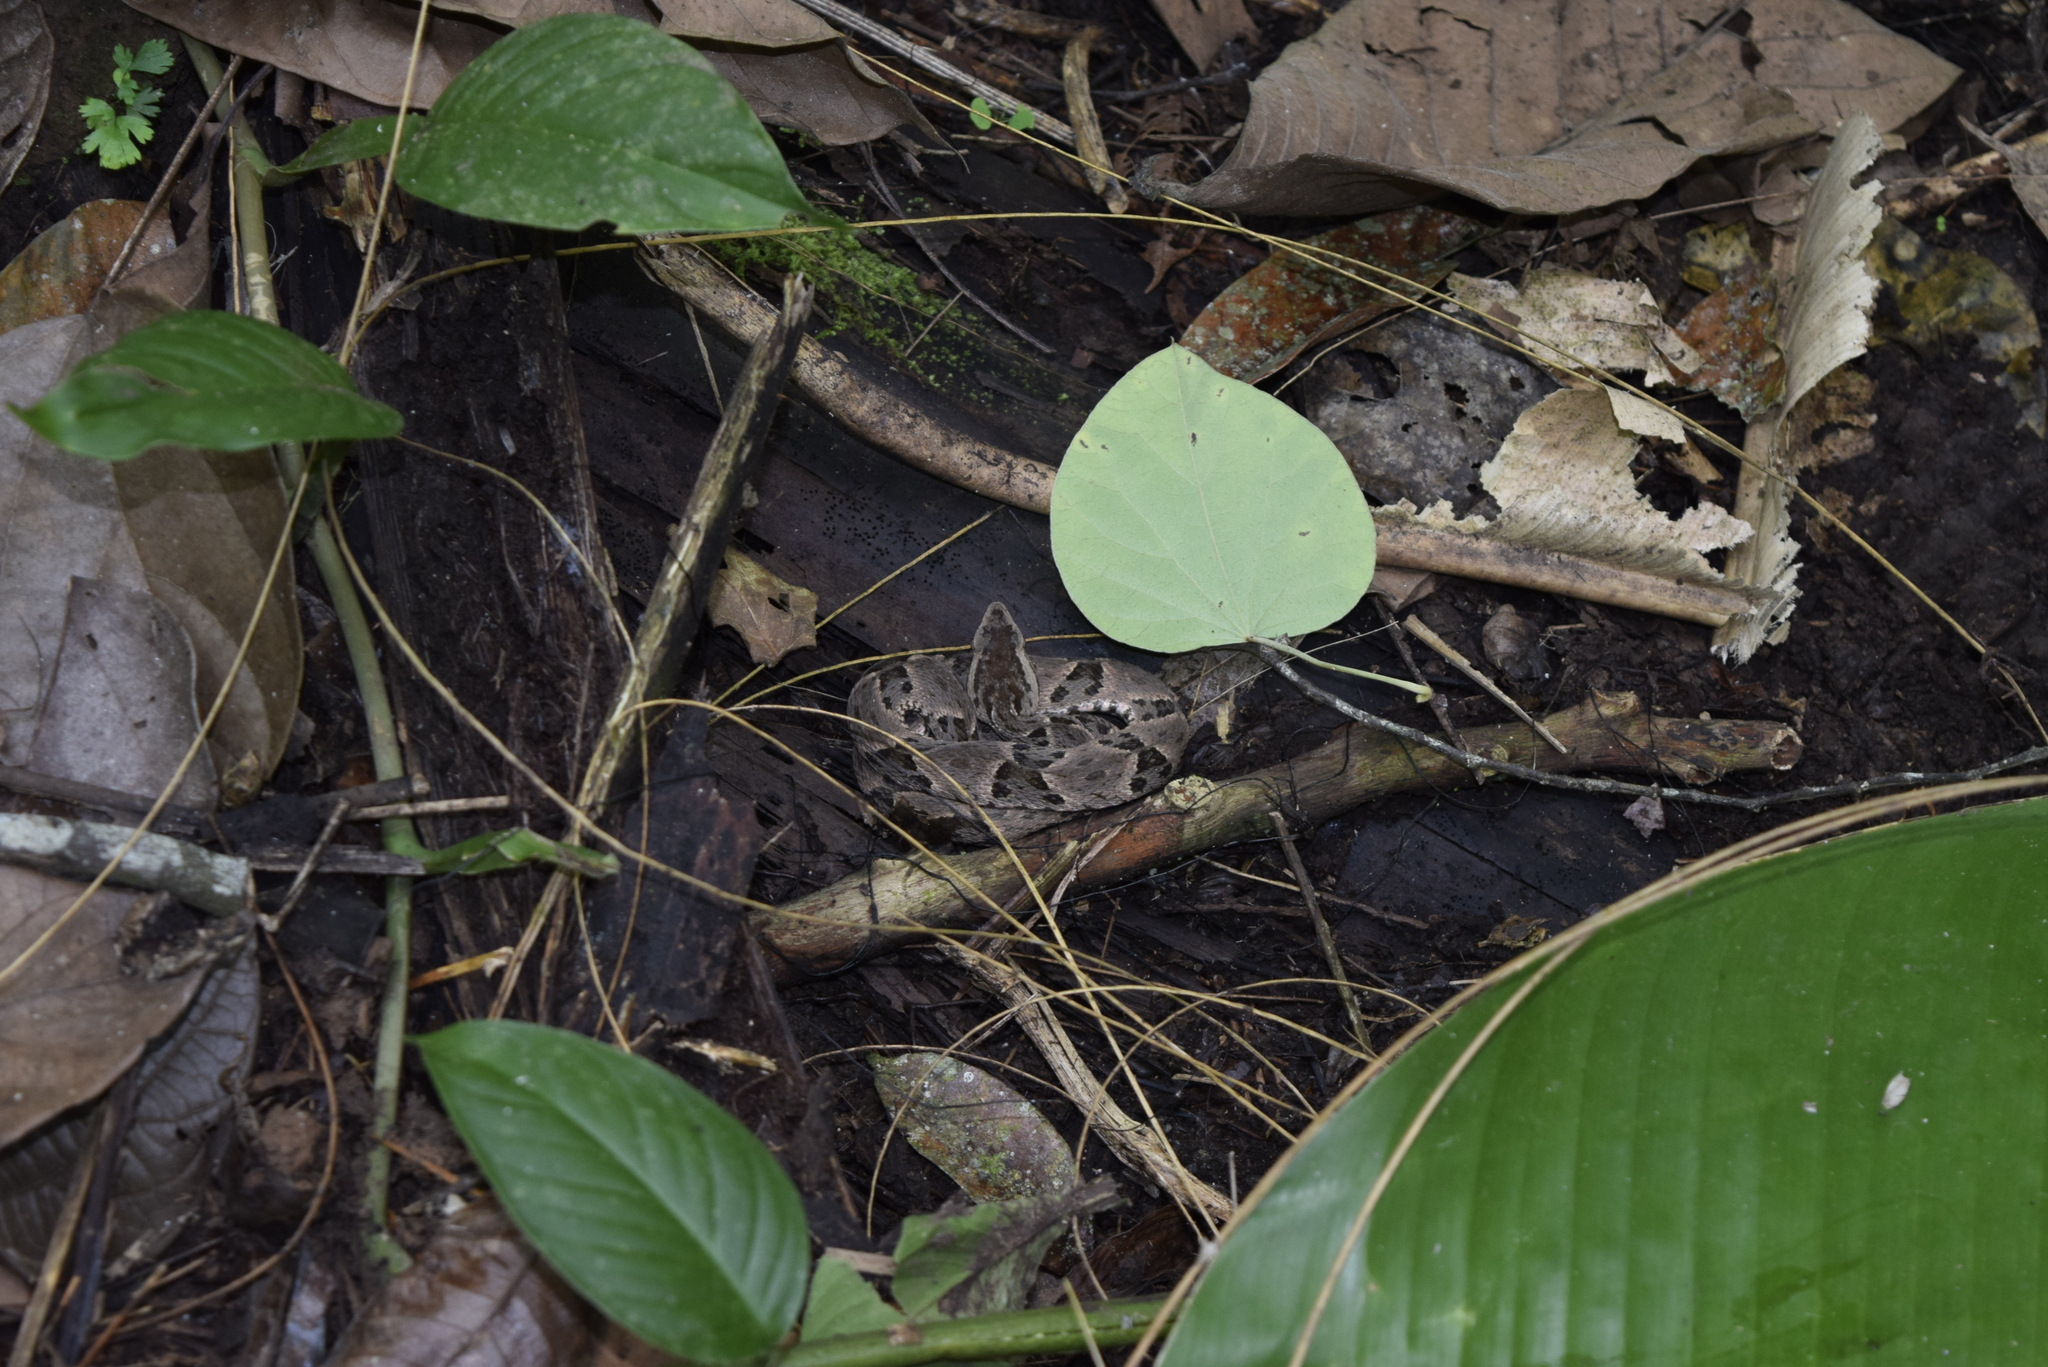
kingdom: Animalia
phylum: Chordata
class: Squamata
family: Viperidae
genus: Bothrops
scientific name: Bothrops asper
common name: Terciopelo
